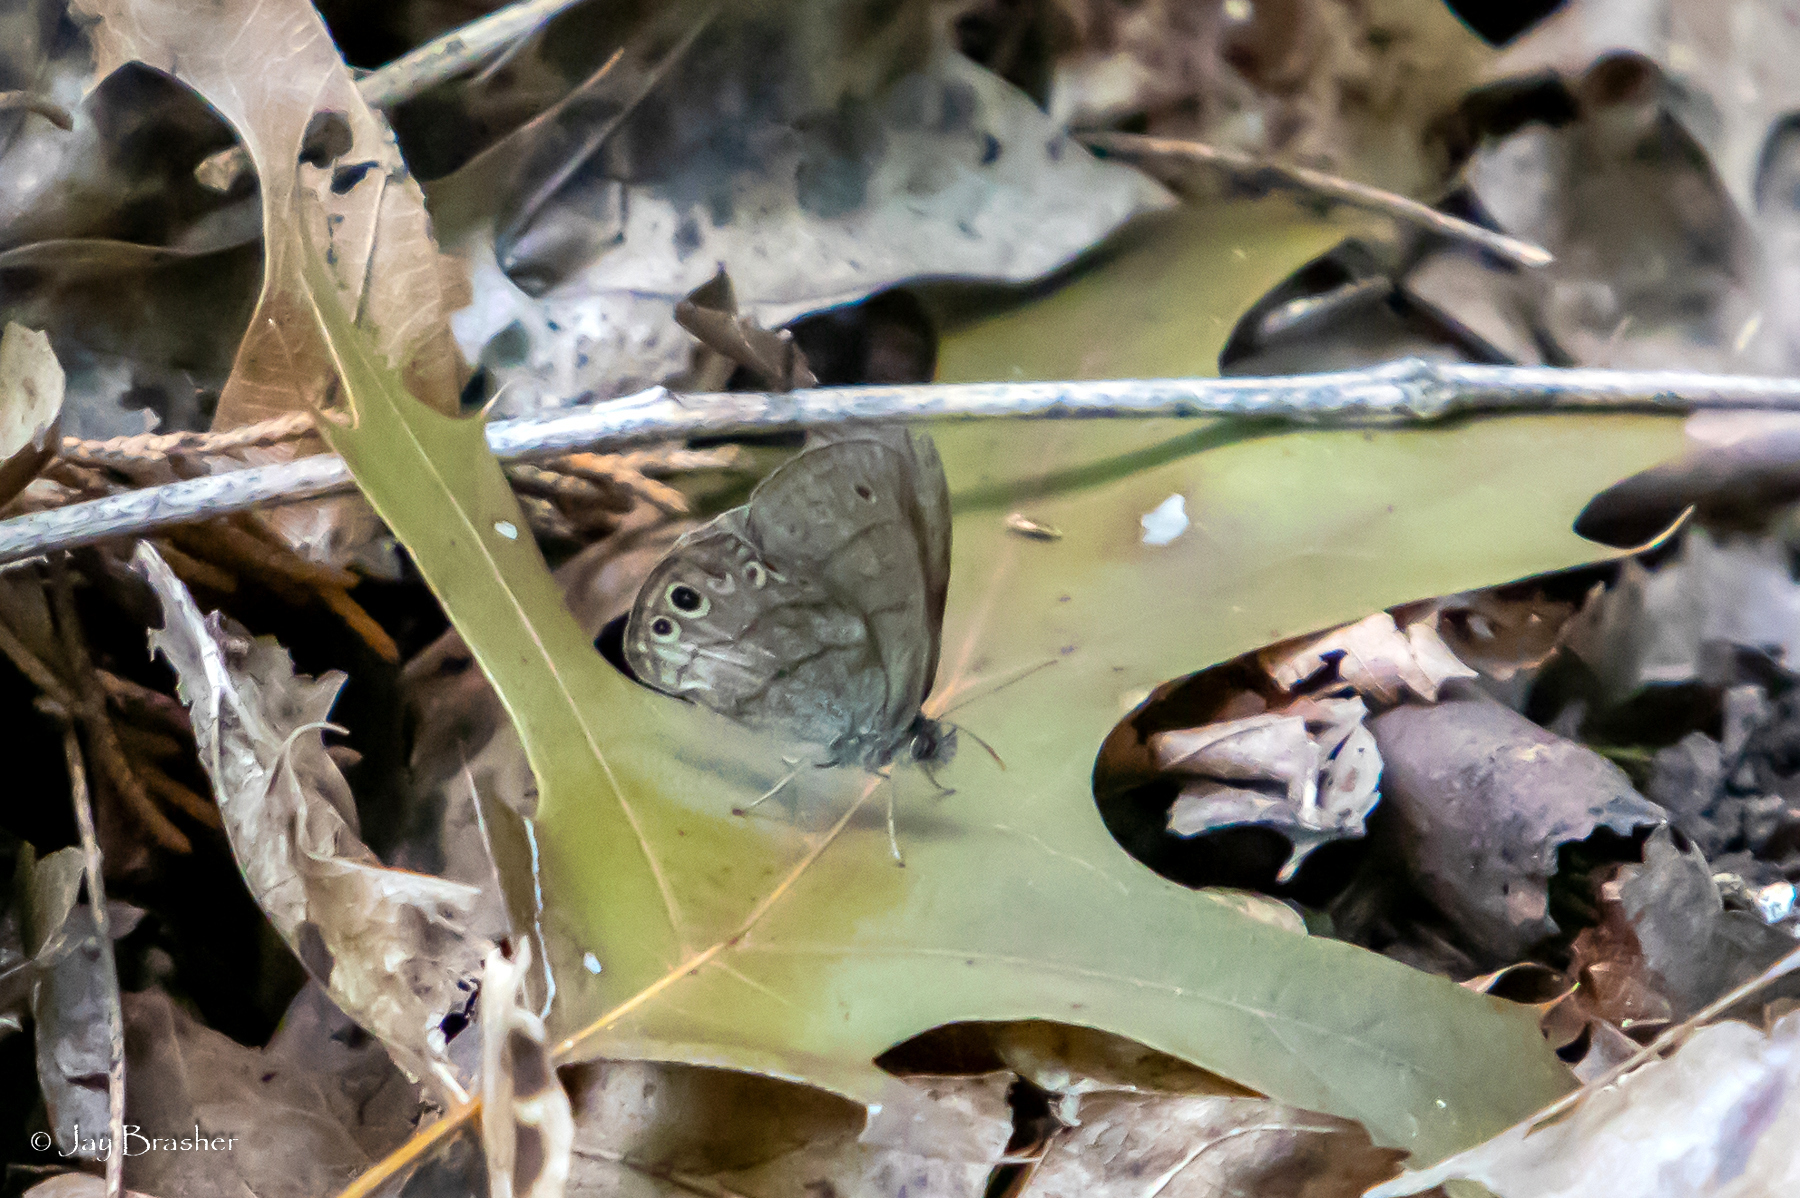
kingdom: Animalia
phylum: Arthropoda
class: Insecta
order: Lepidoptera
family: Nymphalidae
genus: Hermeuptychia
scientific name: Hermeuptychia hermes
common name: Hermes satyr
